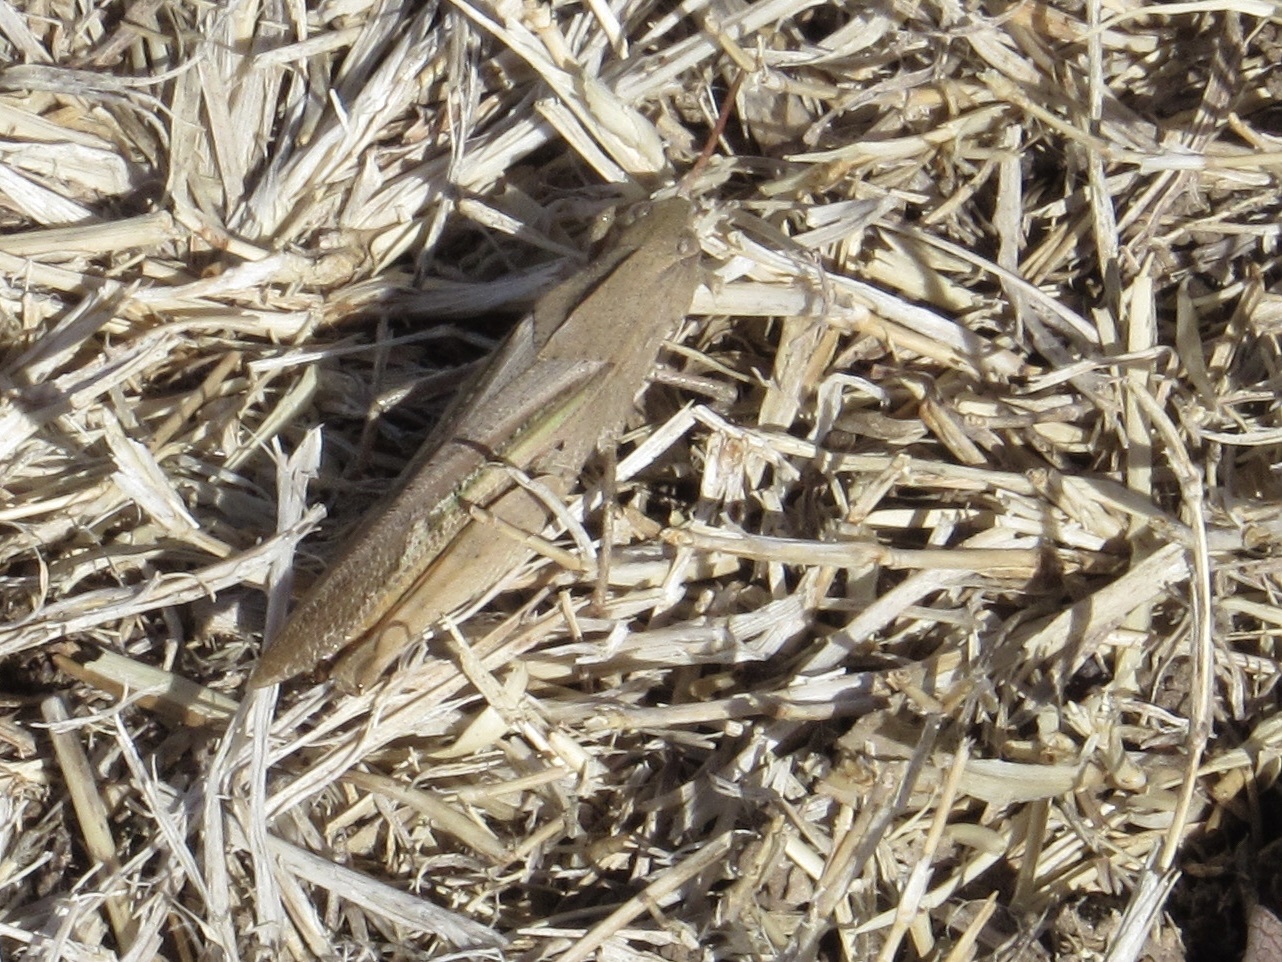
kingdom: Animalia
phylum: Arthropoda
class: Insecta
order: Orthoptera
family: Acrididae
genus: Chortophaga
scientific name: Chortophaga viridifasciata
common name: Green-striped grasshopper
